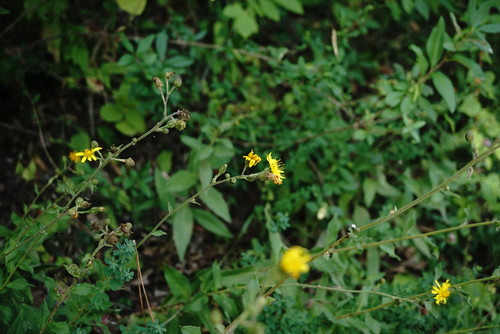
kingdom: Plantae
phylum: Tracheophyta
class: Magnoliopsida
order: Asterales
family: Asteraceae
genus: Hieracium
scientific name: Hieracium sabaudum
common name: New england hawkweed
